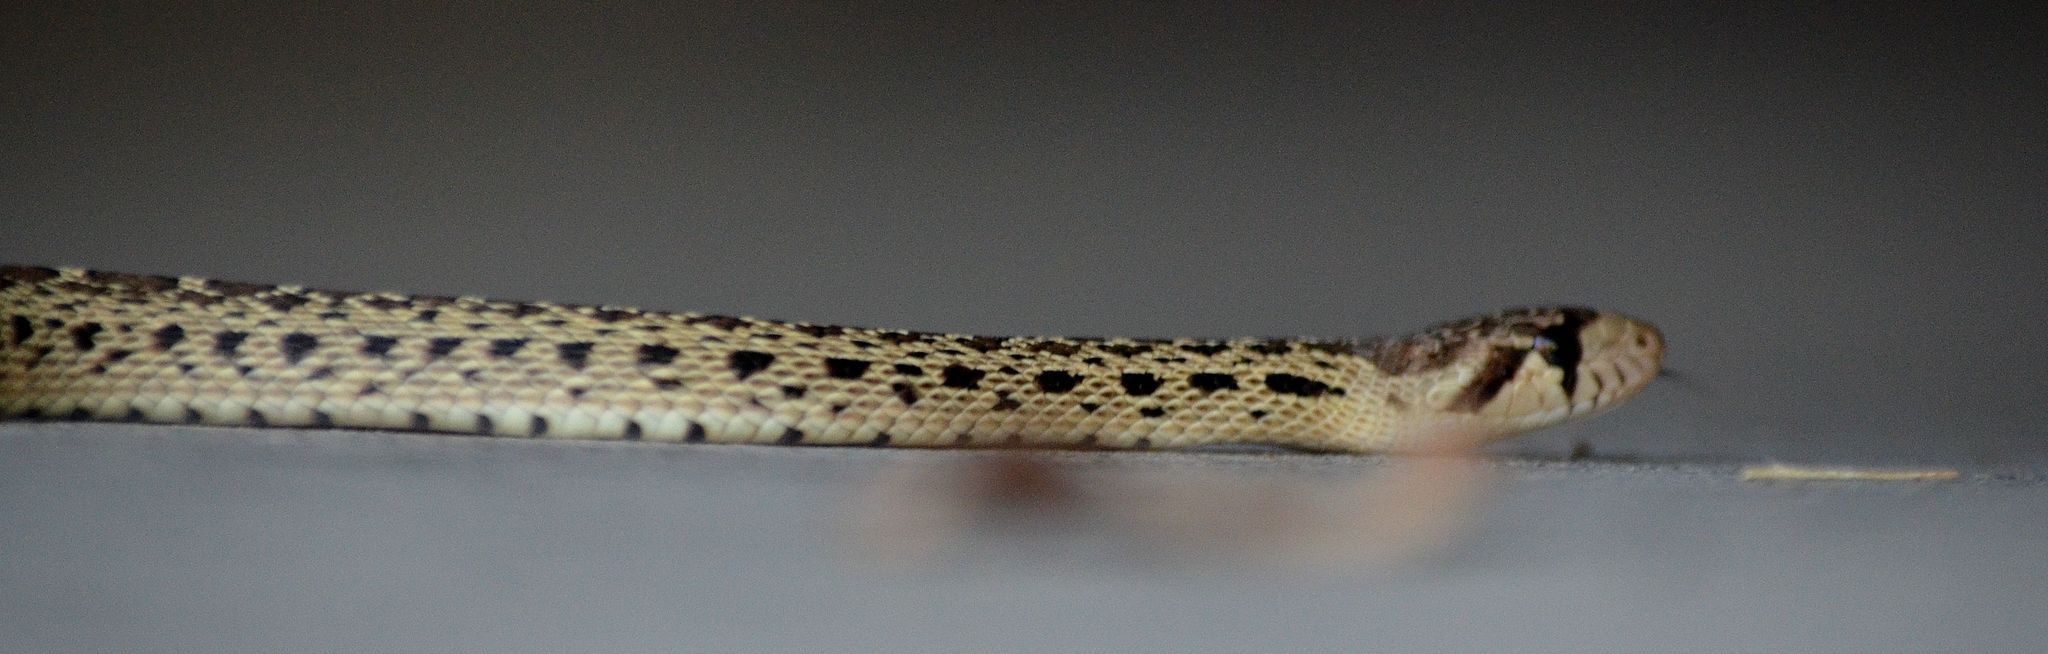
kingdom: Animalia
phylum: Chordata
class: Squamata
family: Colubridae
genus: Pituophis
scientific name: Pituophis catenifer
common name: Gopher snake
